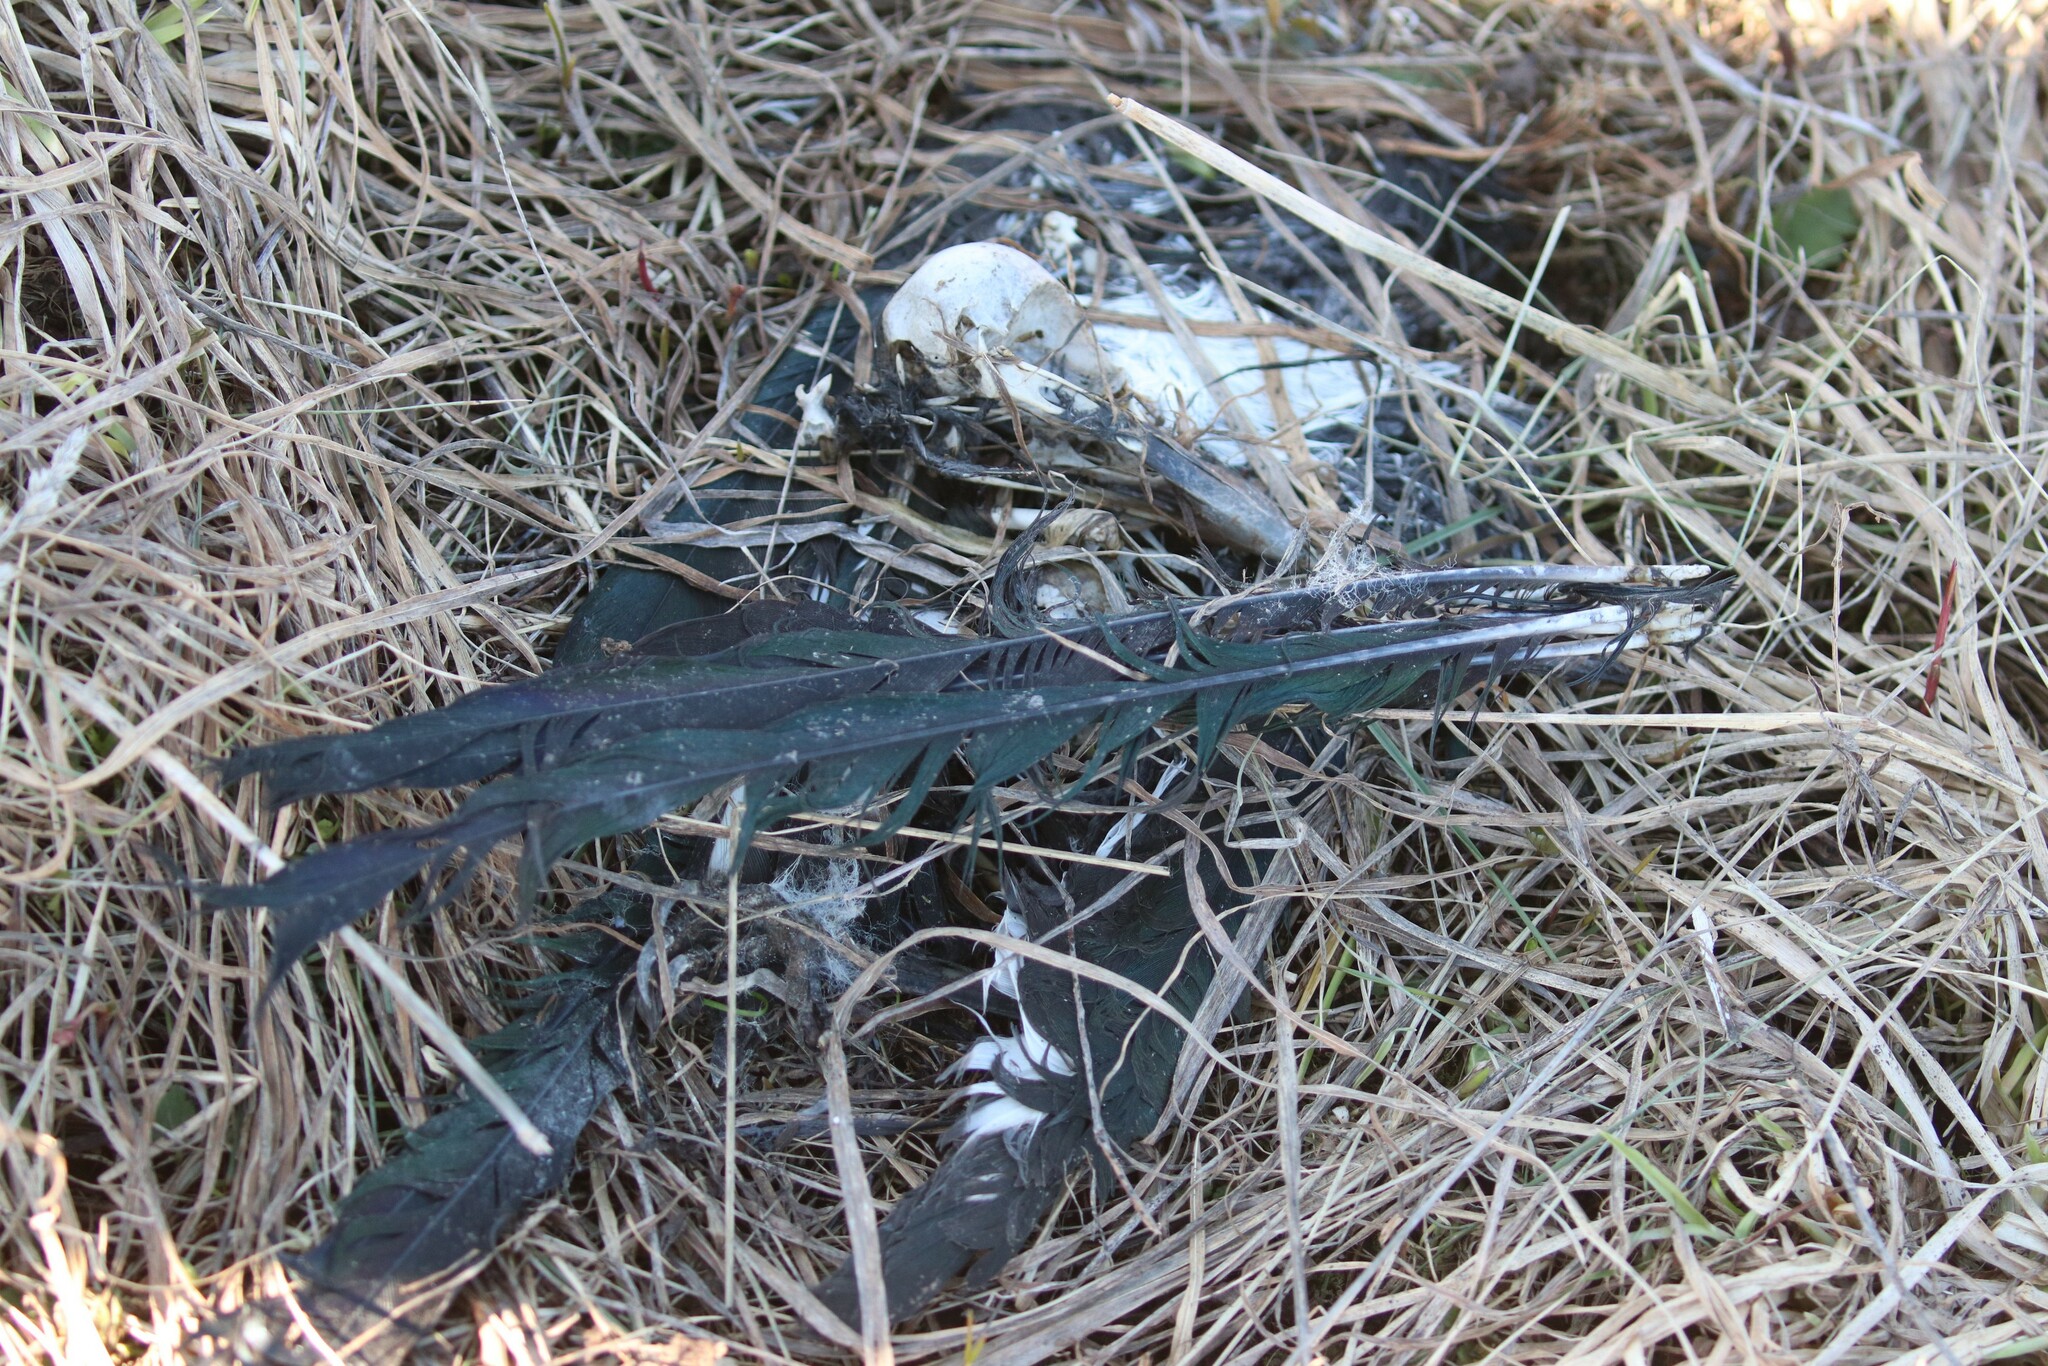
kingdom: Animalia
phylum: Chordata
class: Aves
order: Passeriformes
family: Corvidae
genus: Pica
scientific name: Pica pica
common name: Eurasian magpie
